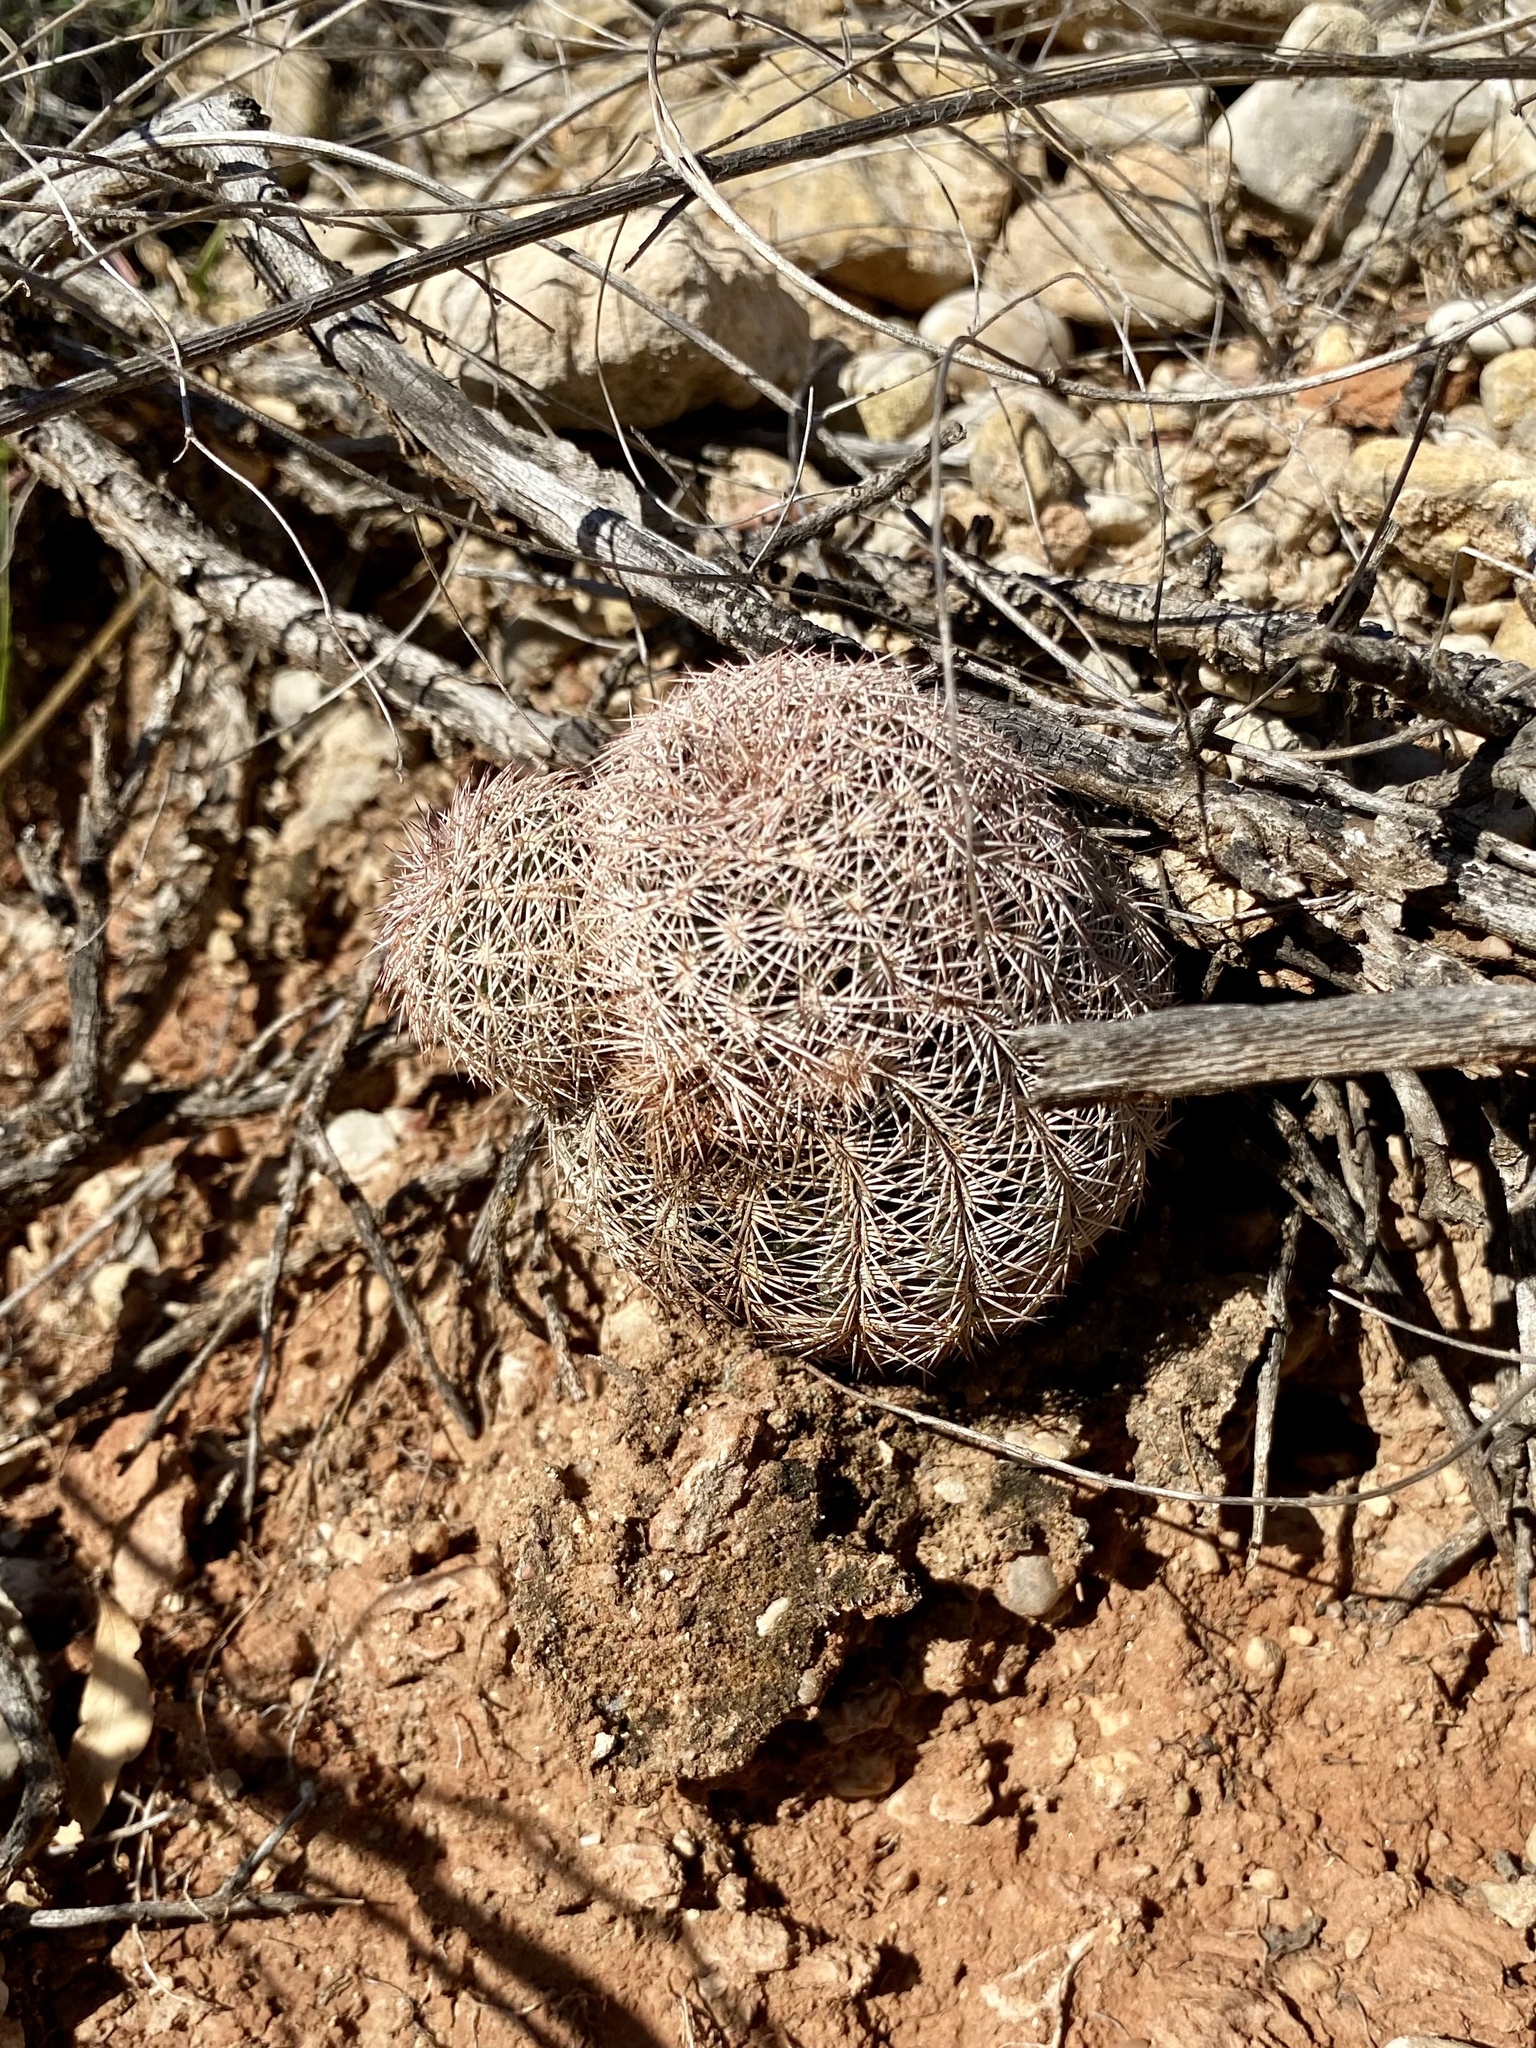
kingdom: Plantae
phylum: Tracheophyta
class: Magnoliopsida
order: Caryophyllales
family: Cactaceae
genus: Echinocereus
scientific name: Echinocereus reichenbachii
